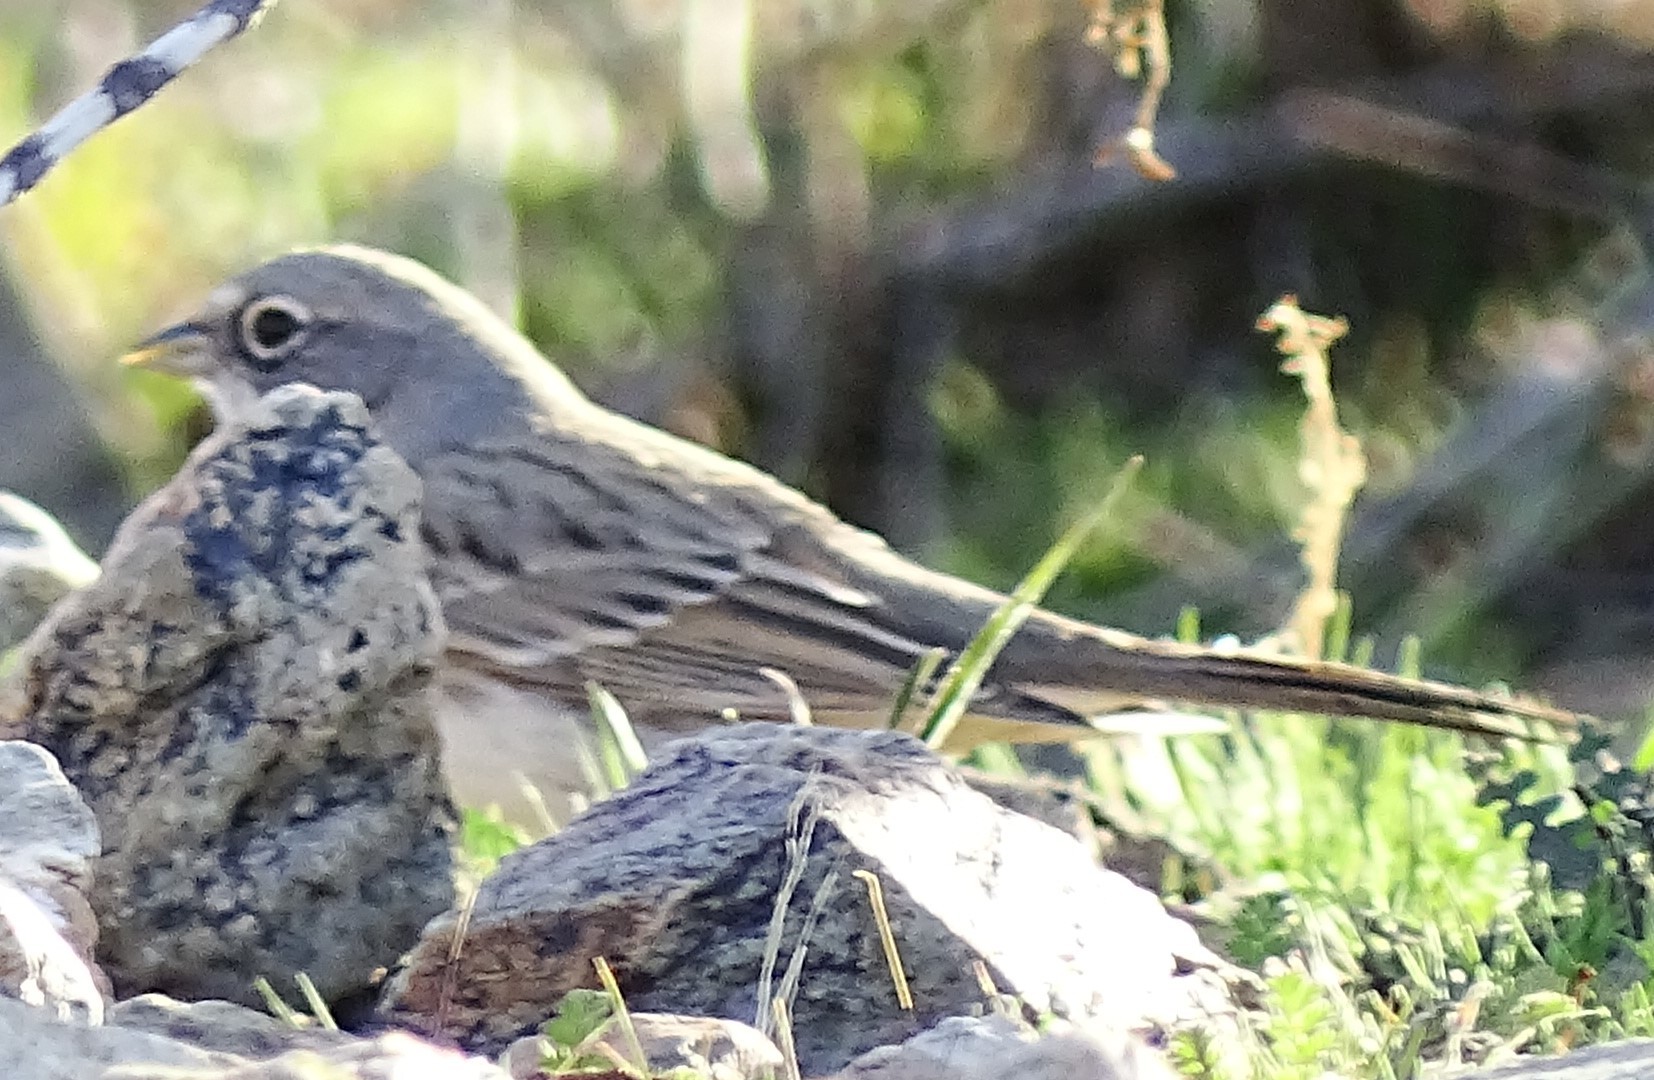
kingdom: Animalia
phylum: Chordata
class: Aves
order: Passeriformes
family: Passerellidae
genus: Artemisiospiza
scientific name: Artemisiospiza
